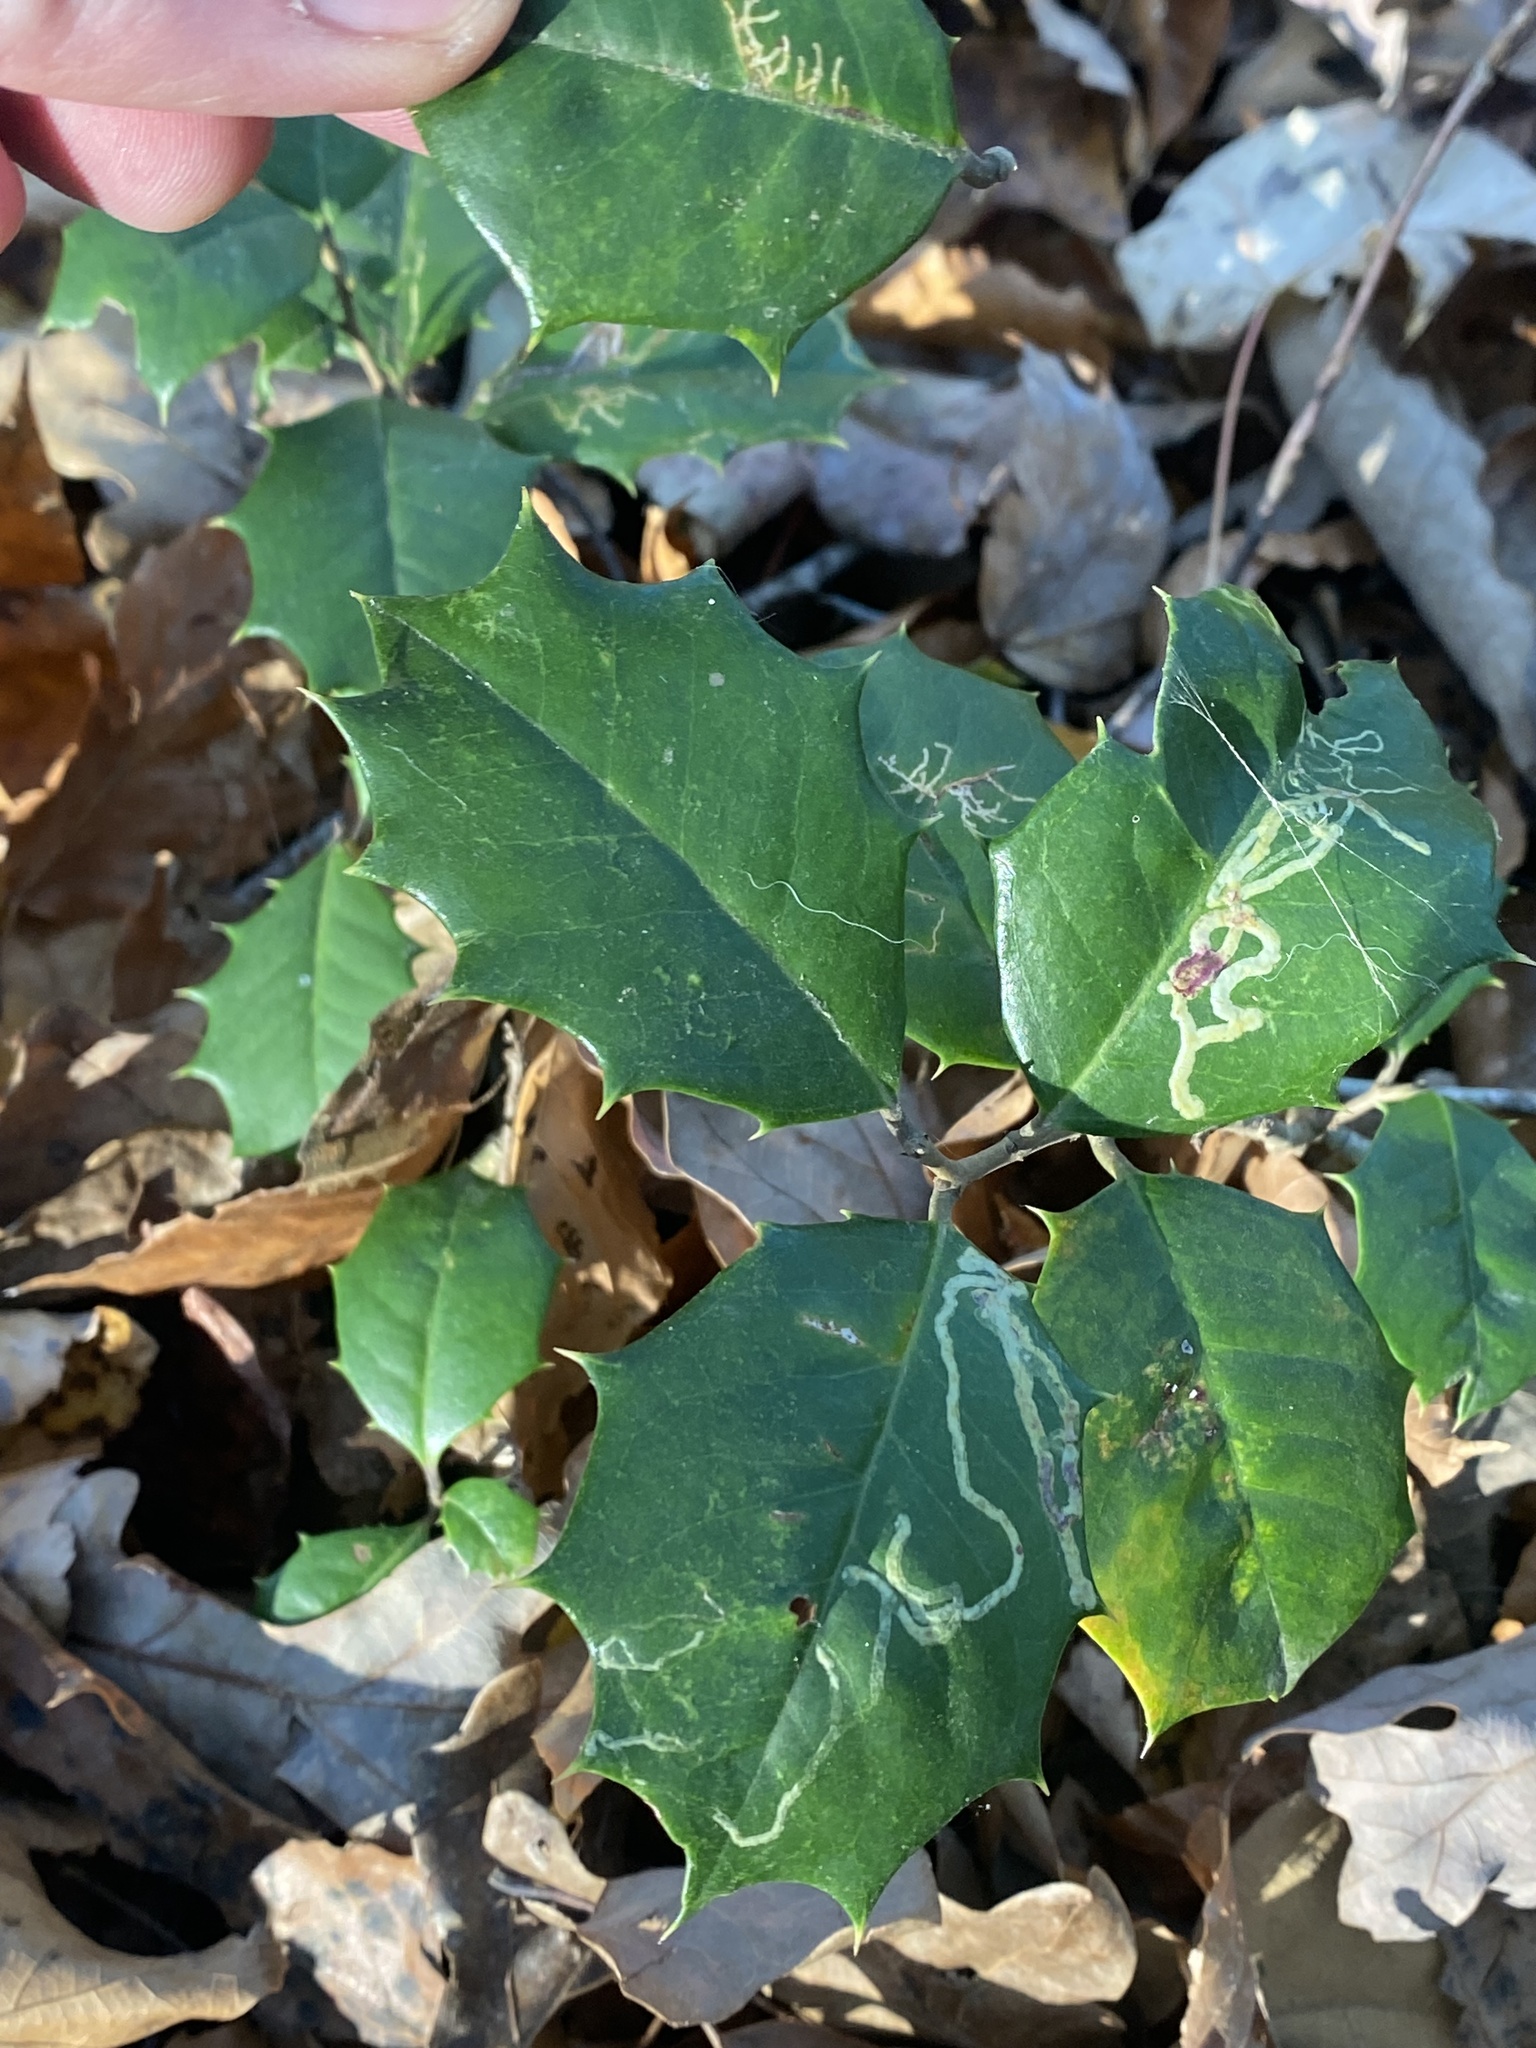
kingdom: Plantae
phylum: Tracheophyta
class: Magnoliopsida
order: Aquifoliales
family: Aquifoliaceae
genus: Ilex
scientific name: Ilex opaca
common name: American holly
